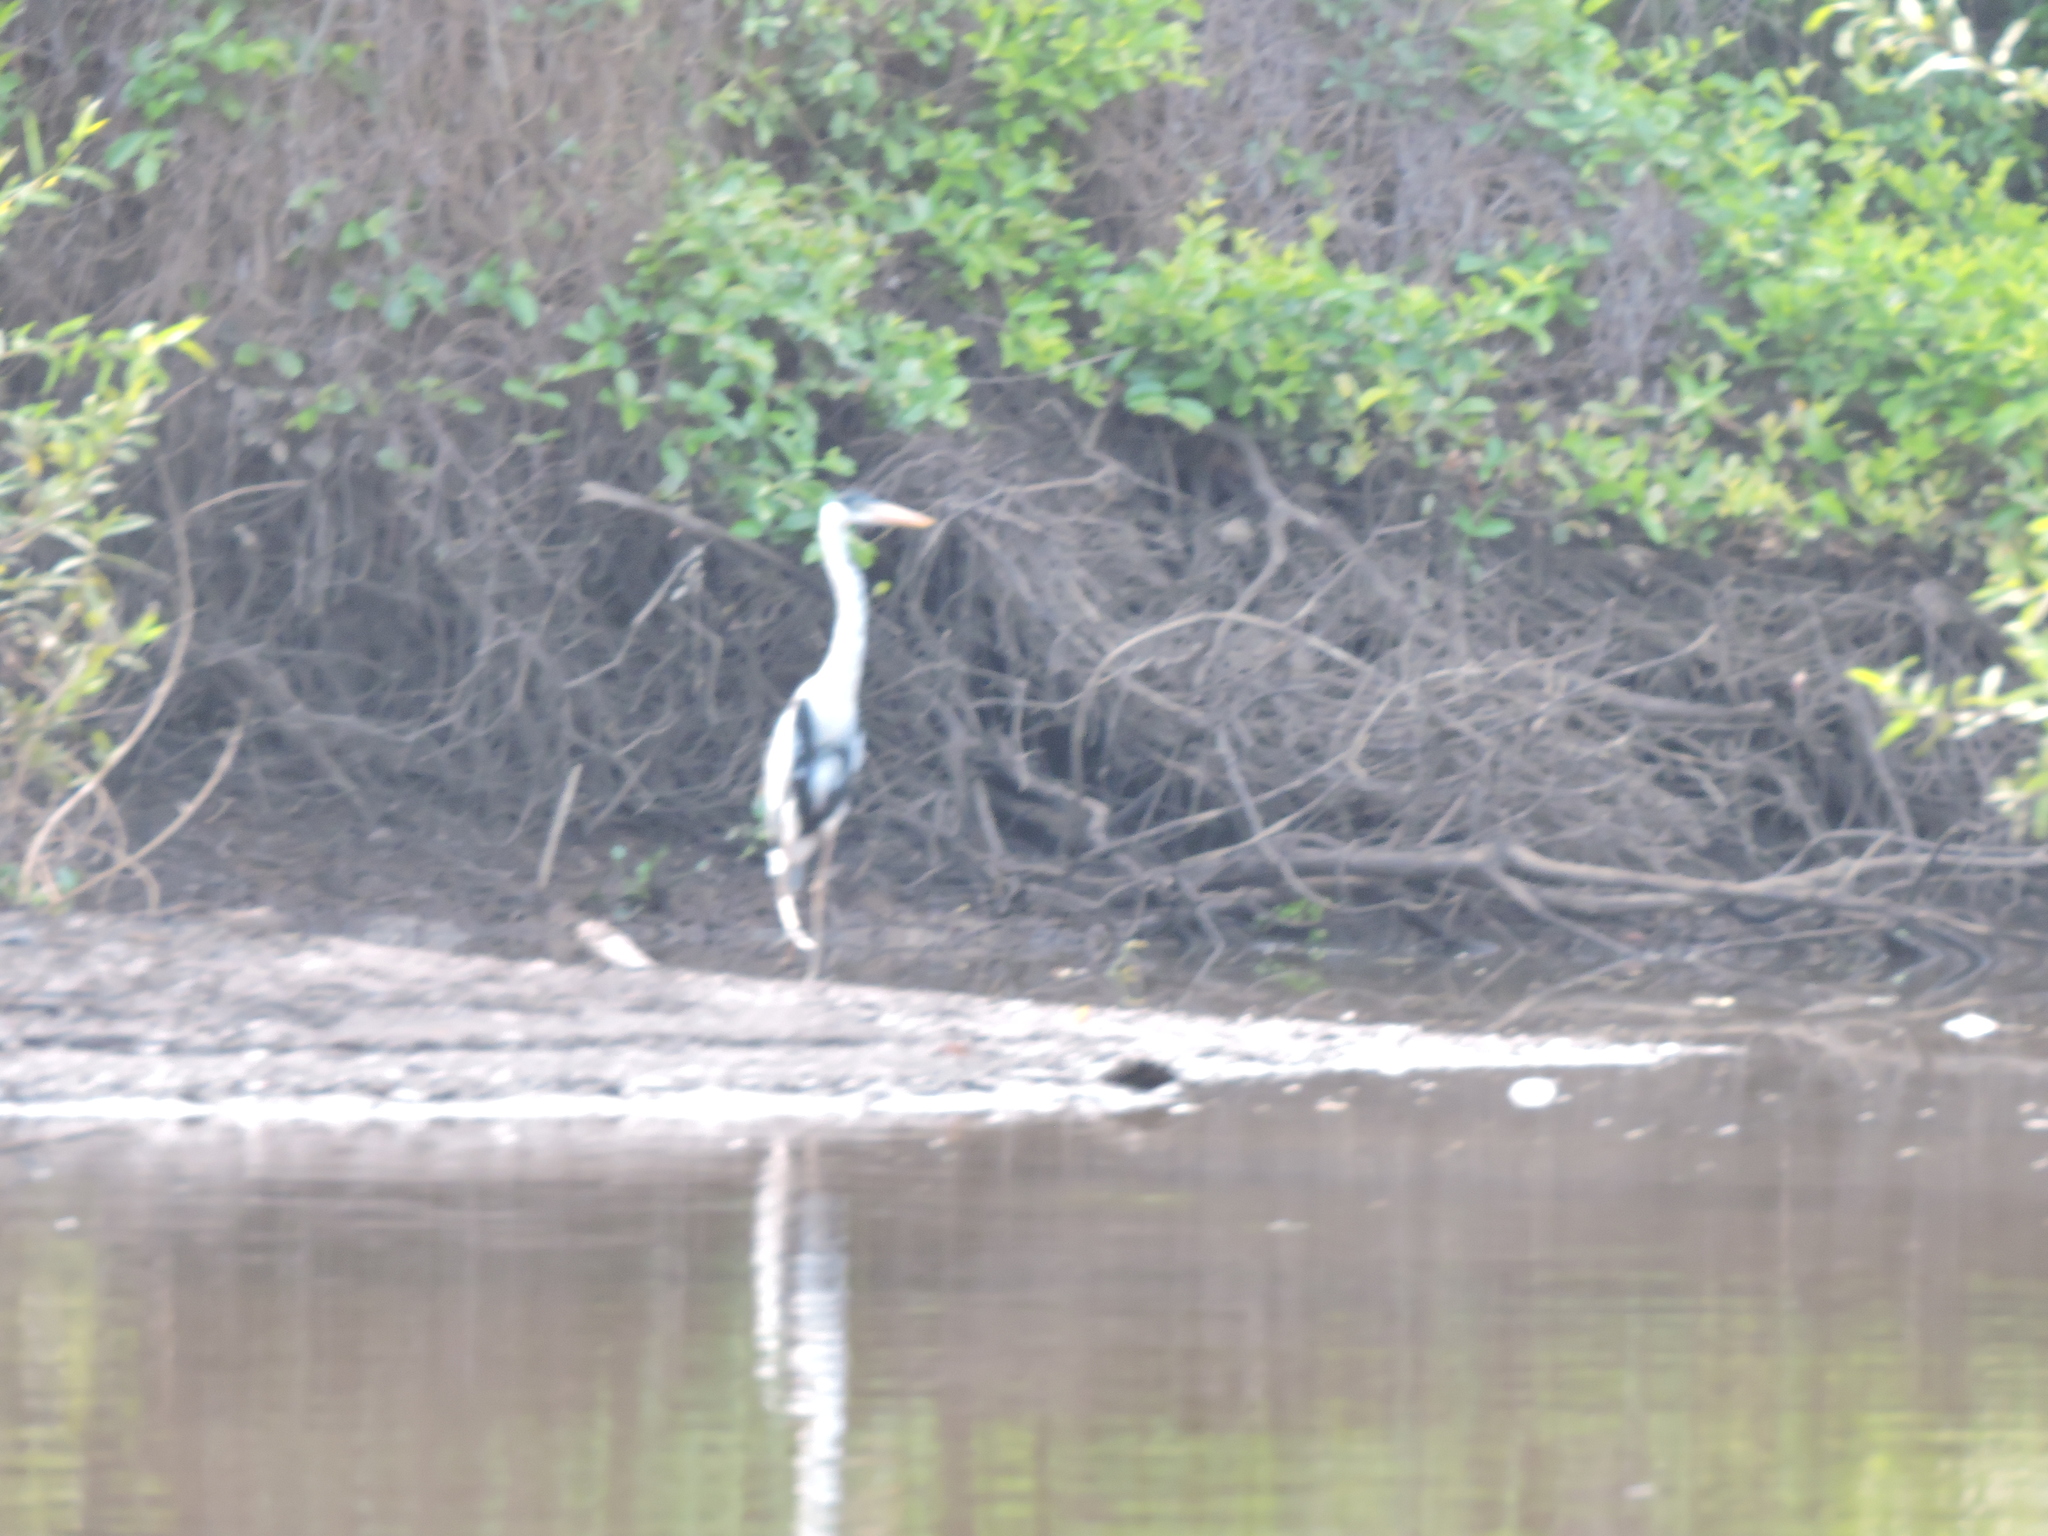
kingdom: Animalia
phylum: Chordata
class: Aves
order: Pelecaniformes
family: Ardeidae
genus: Ardea
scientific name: Ardea cocoi
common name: Cocoi heron
